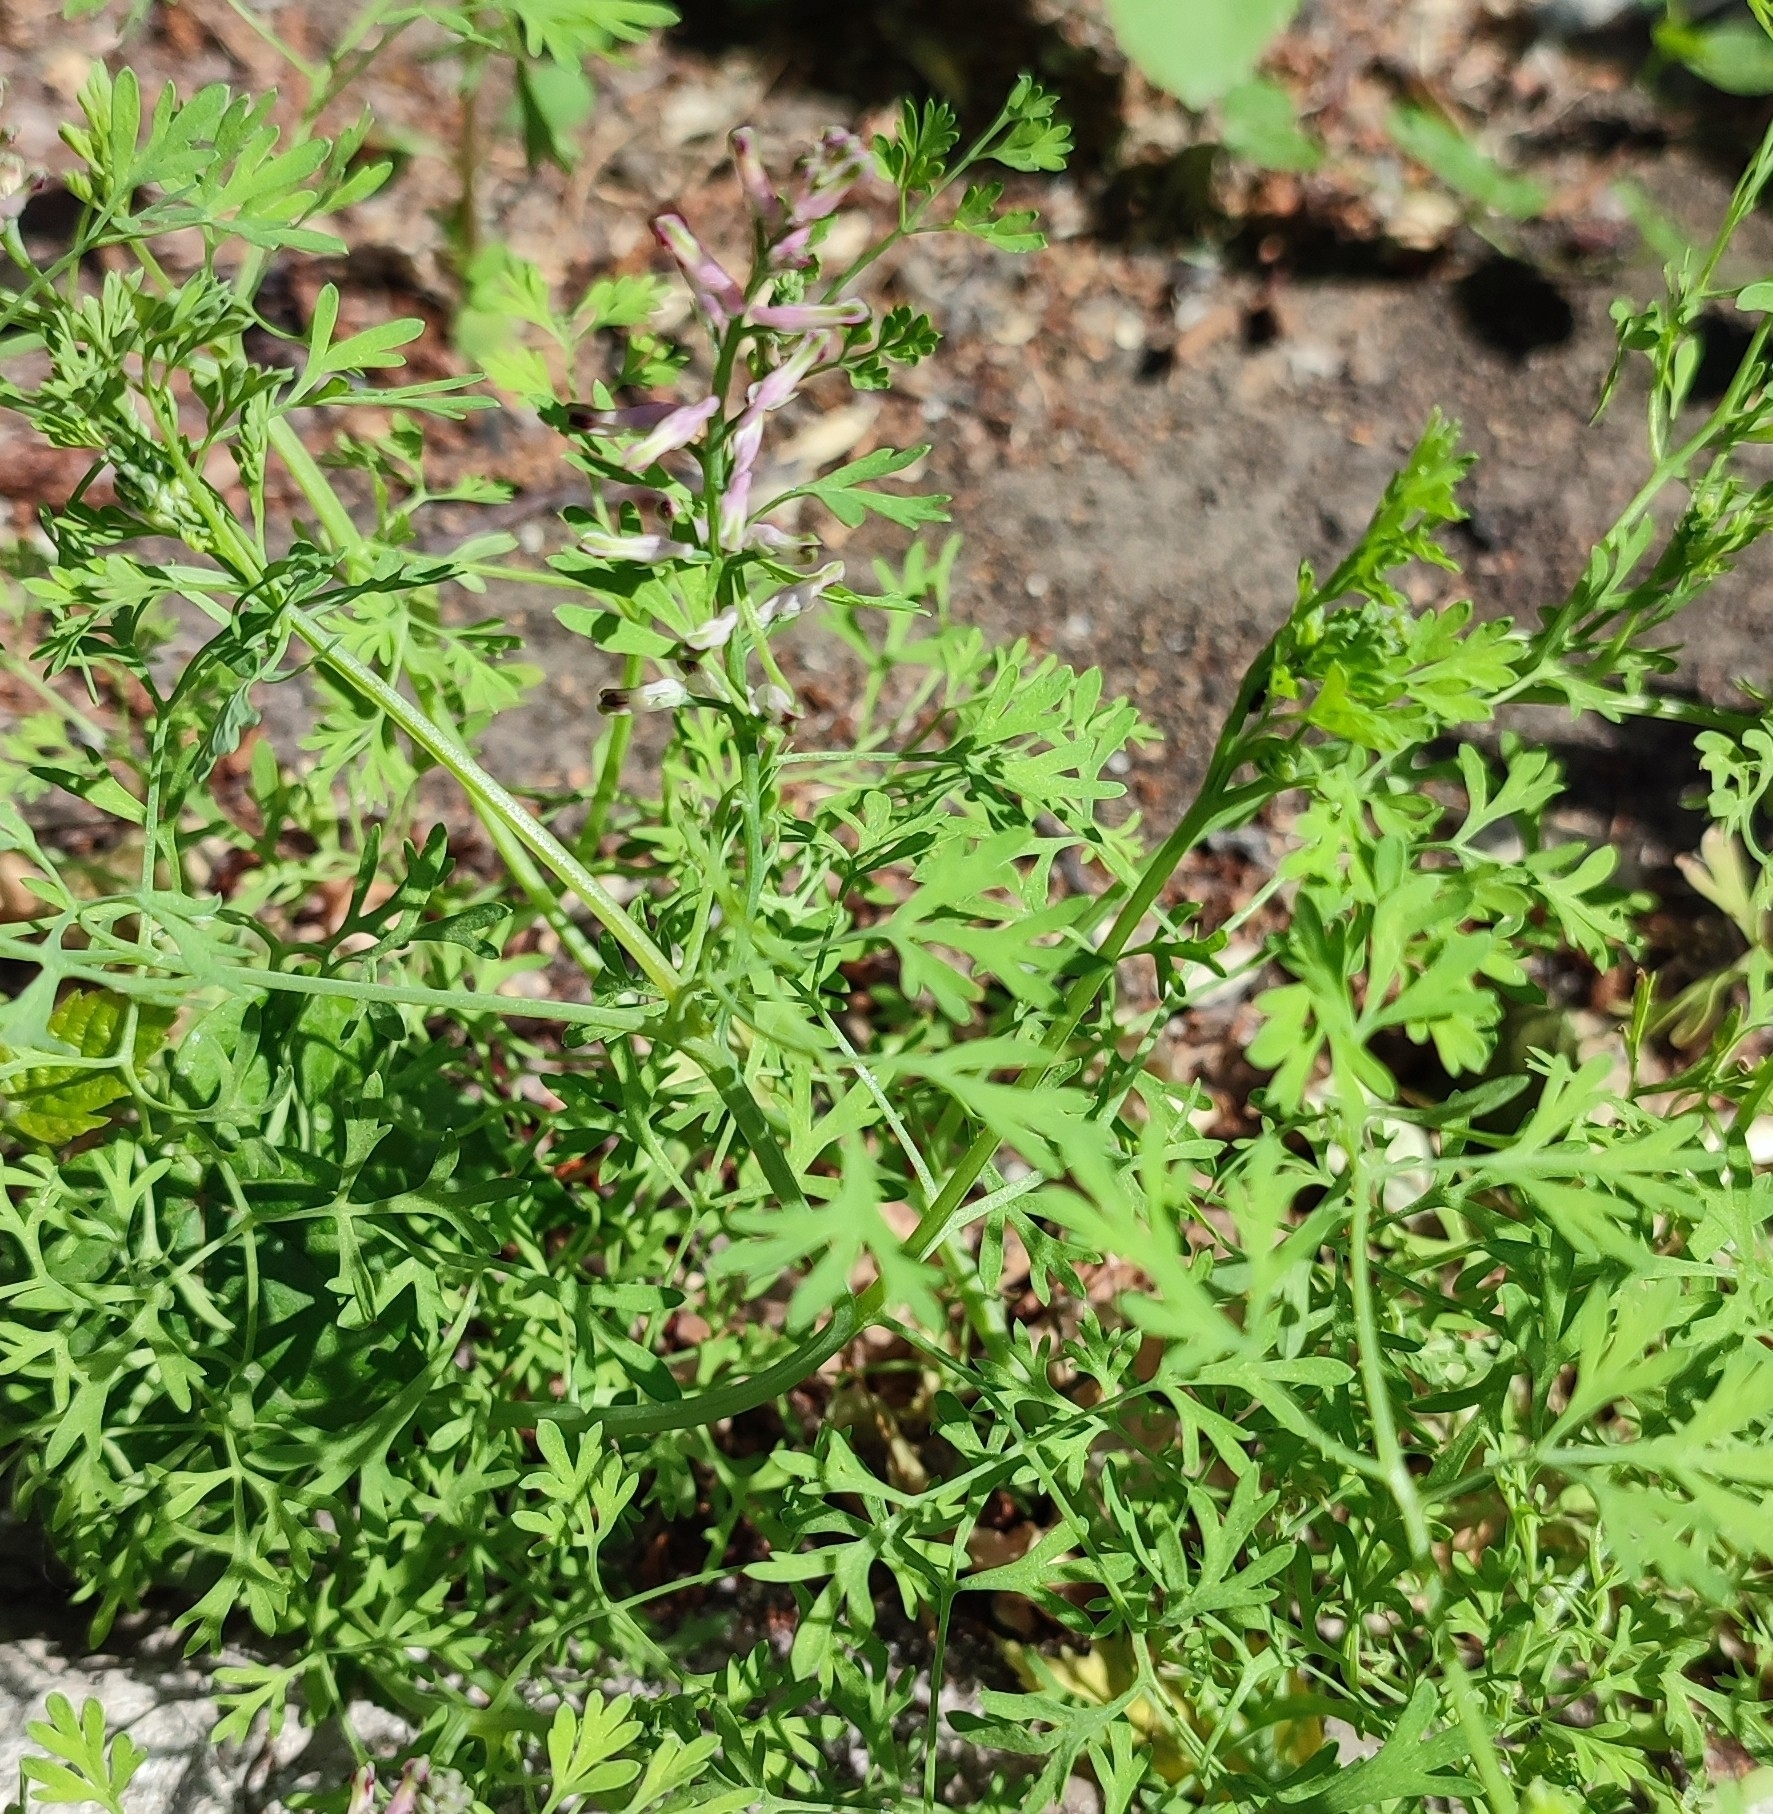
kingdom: Plantae
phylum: Tracheophyta
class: Magnoliopsida
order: Ranunculales
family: Papaveraceae
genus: Fumaria
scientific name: Fumaria officinalis
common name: Common fumitory
